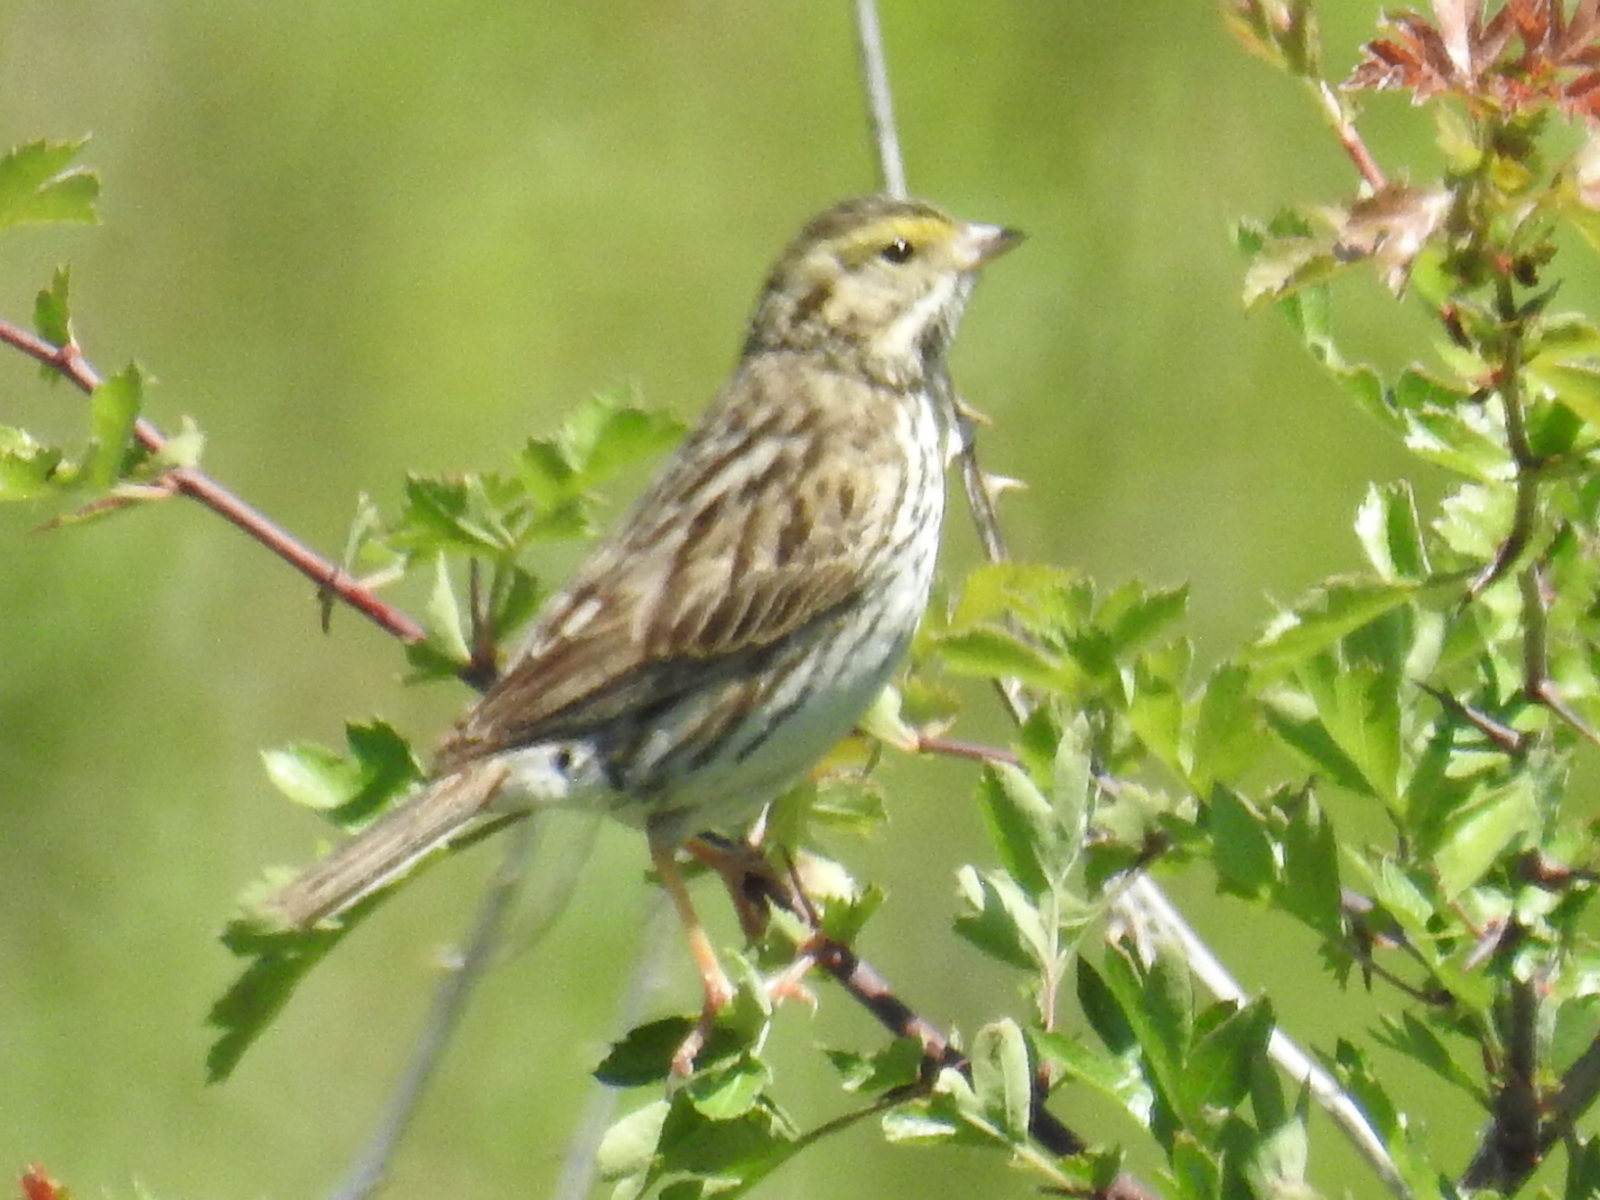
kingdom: Animalia
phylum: Chordata
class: Aves
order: Passeriformes
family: Passerellidae
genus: Passerculus
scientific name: Passerculus sandwichensis
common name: Savannah sparrow
